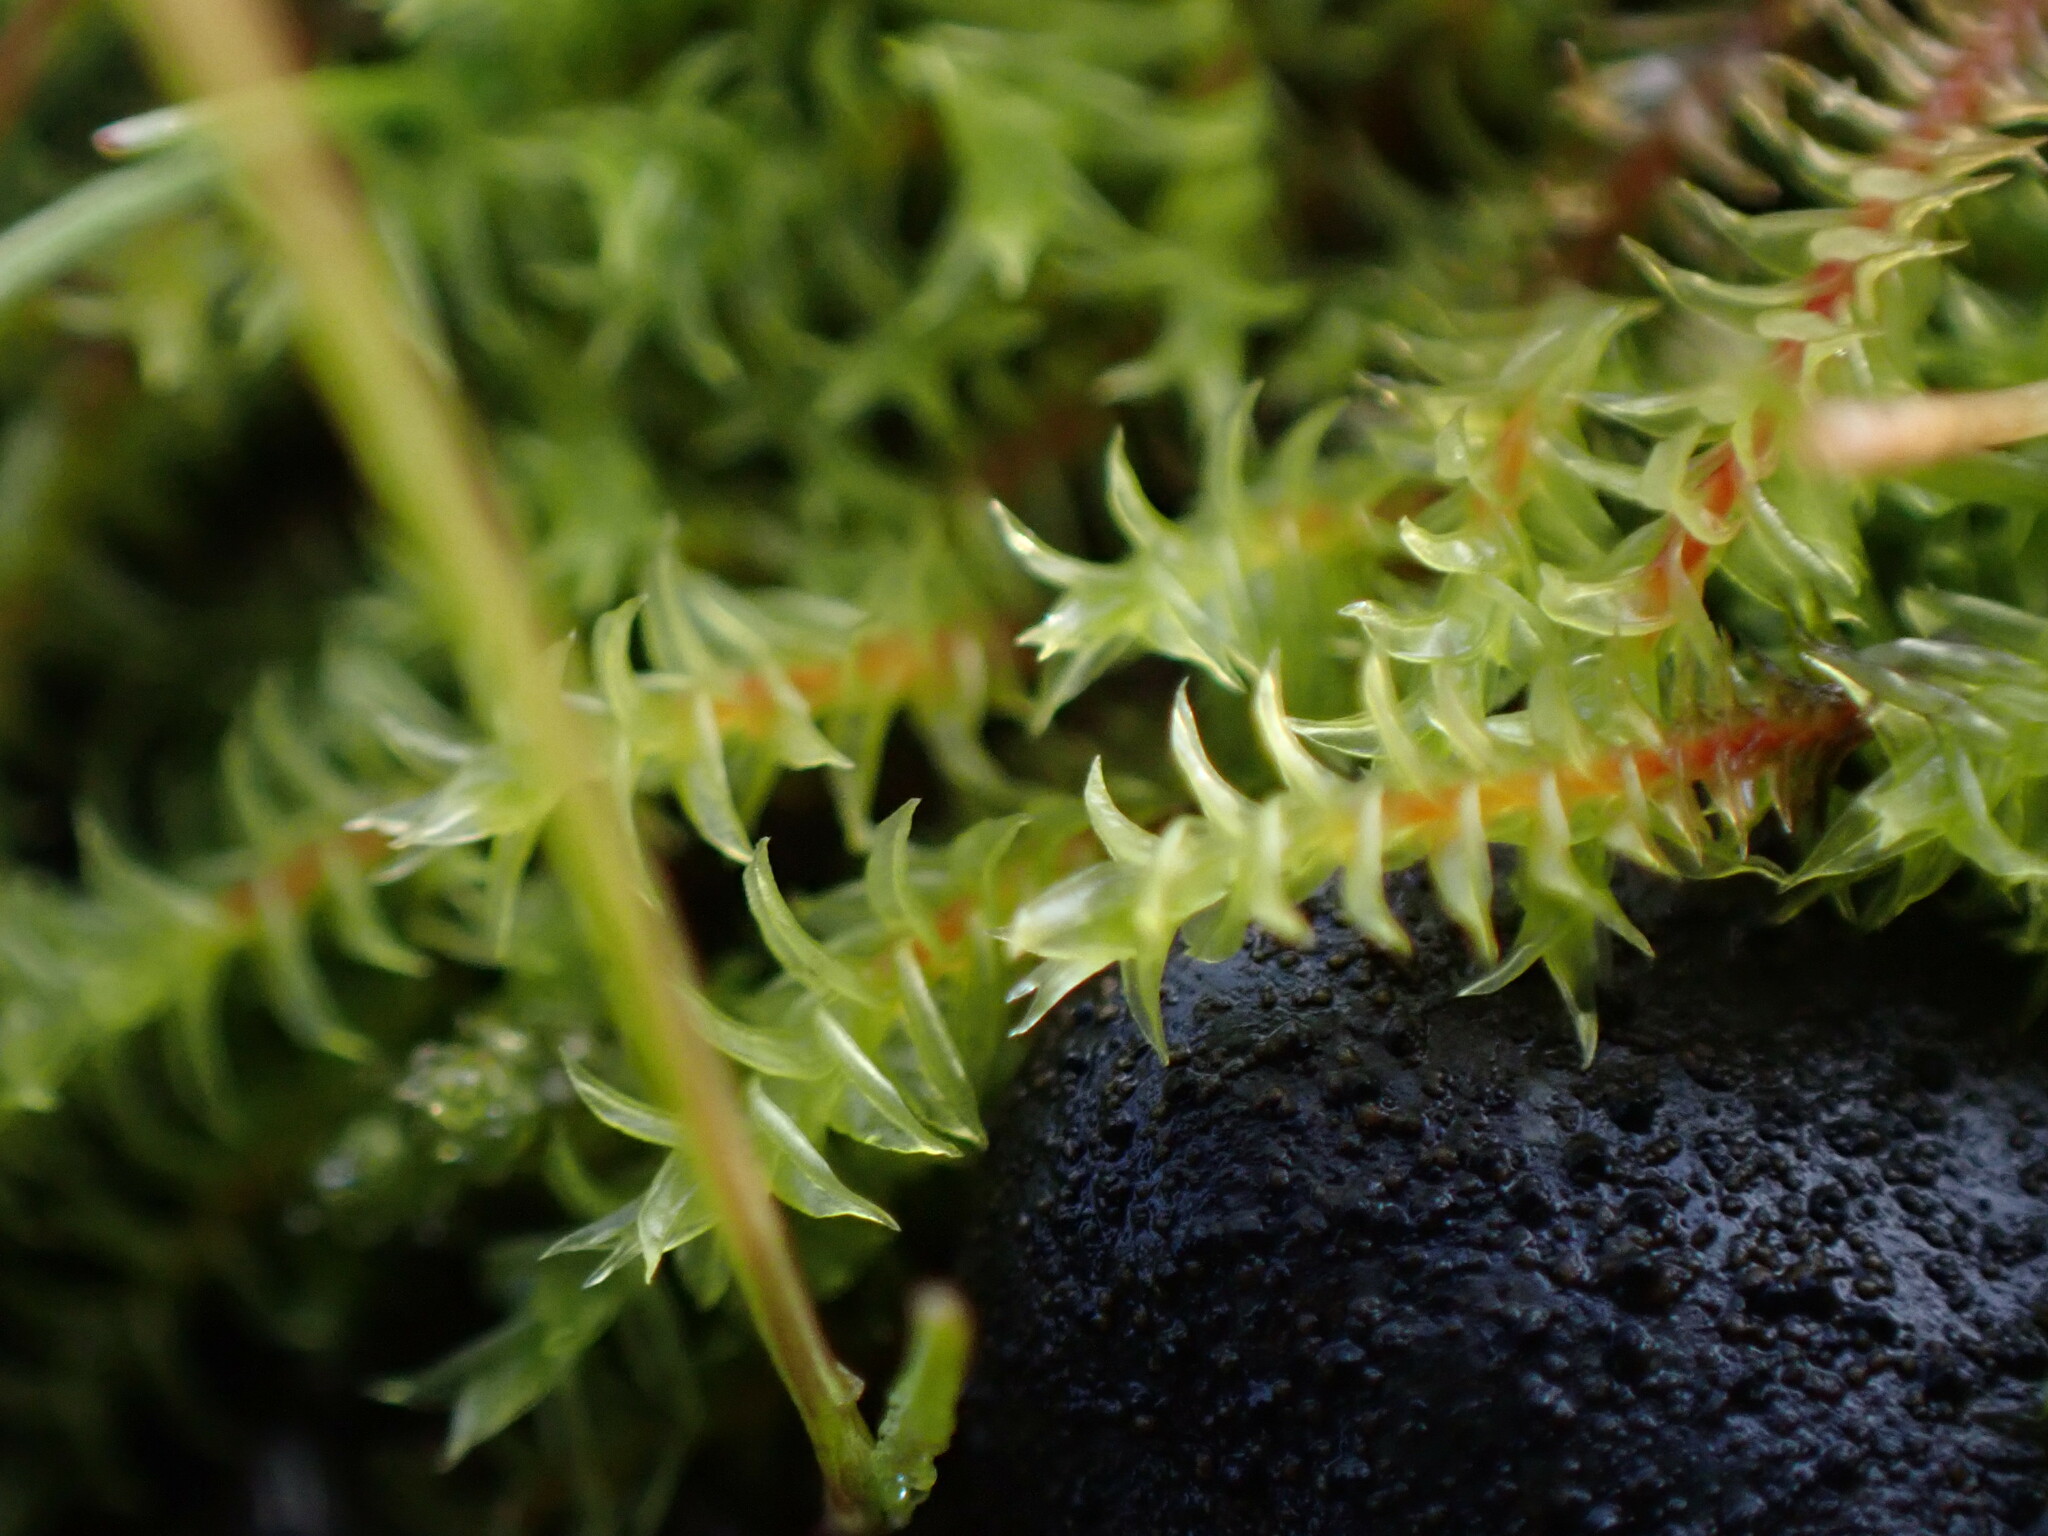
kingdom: Plantae
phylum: Bryophyta
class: Bryopsida
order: Pottiales
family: Pottiaceae
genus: Triquetrella
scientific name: Triquetrella californica
